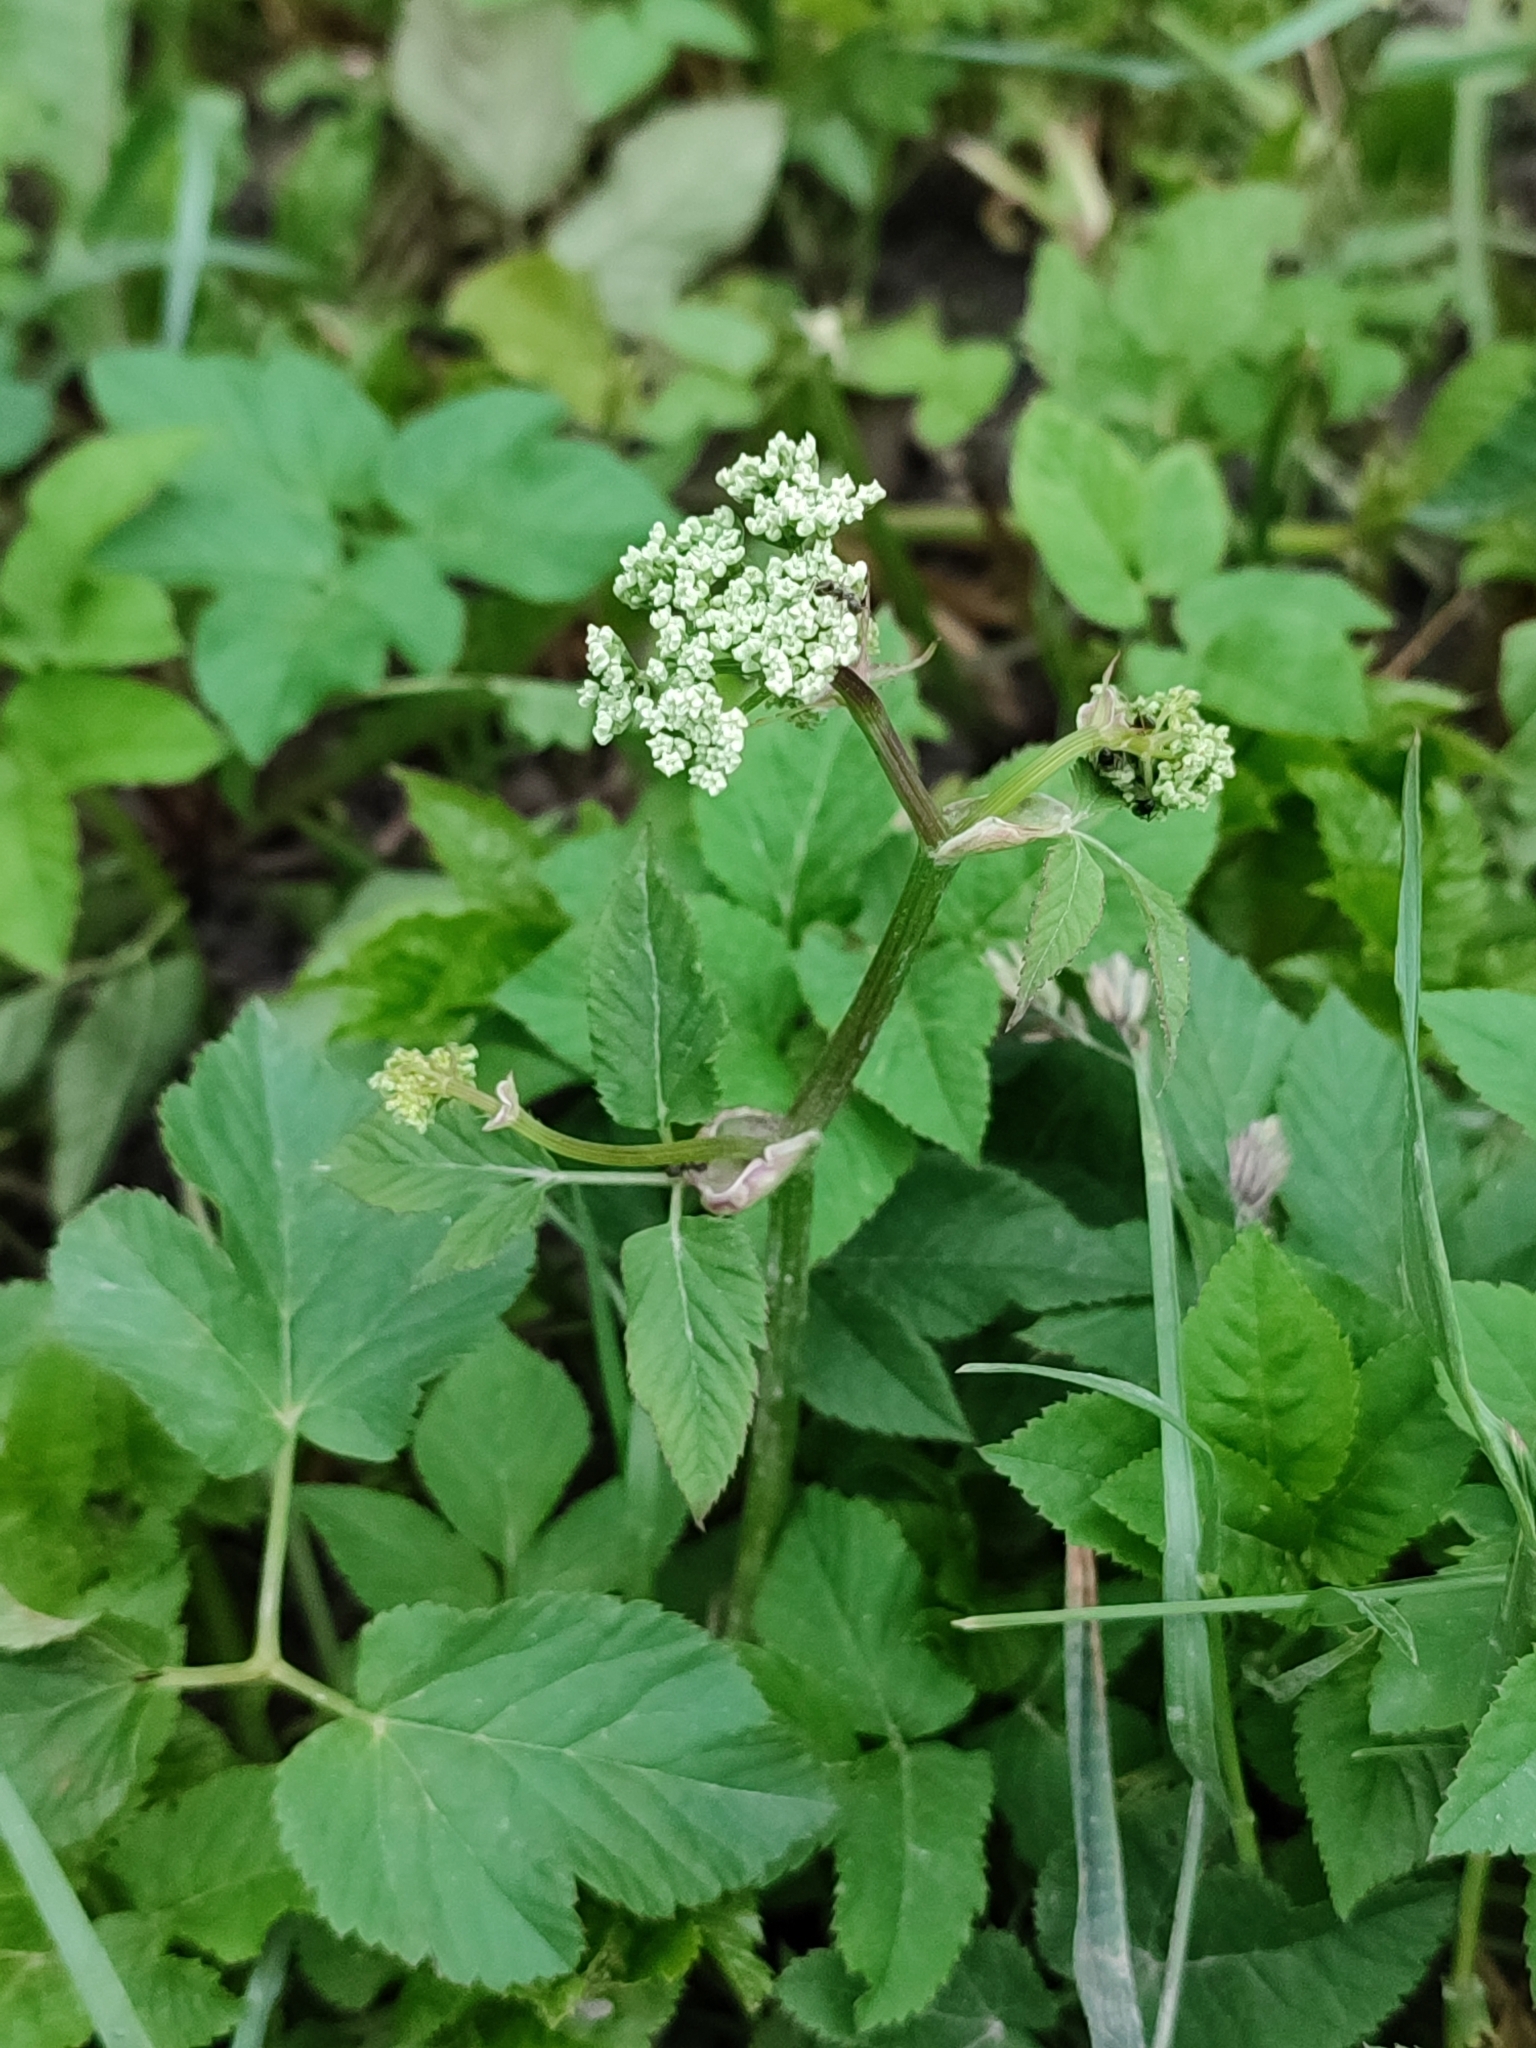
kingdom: Plantae
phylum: Tracheophyta
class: Magnoliopsida
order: Apiales
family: Apiaceae
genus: Aegopodium
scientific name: Aegopodium podagraria
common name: Ground-elder
